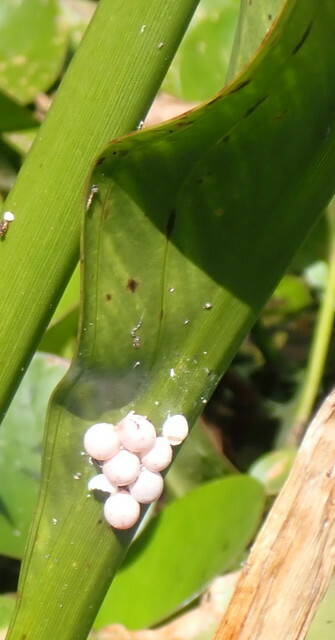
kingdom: Animalia
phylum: Mollusca
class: Gastropoda
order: Architaenioglossa
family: Ampullariidae
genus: Pomacea
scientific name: Pomacea paludosa
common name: Florida applesnail
